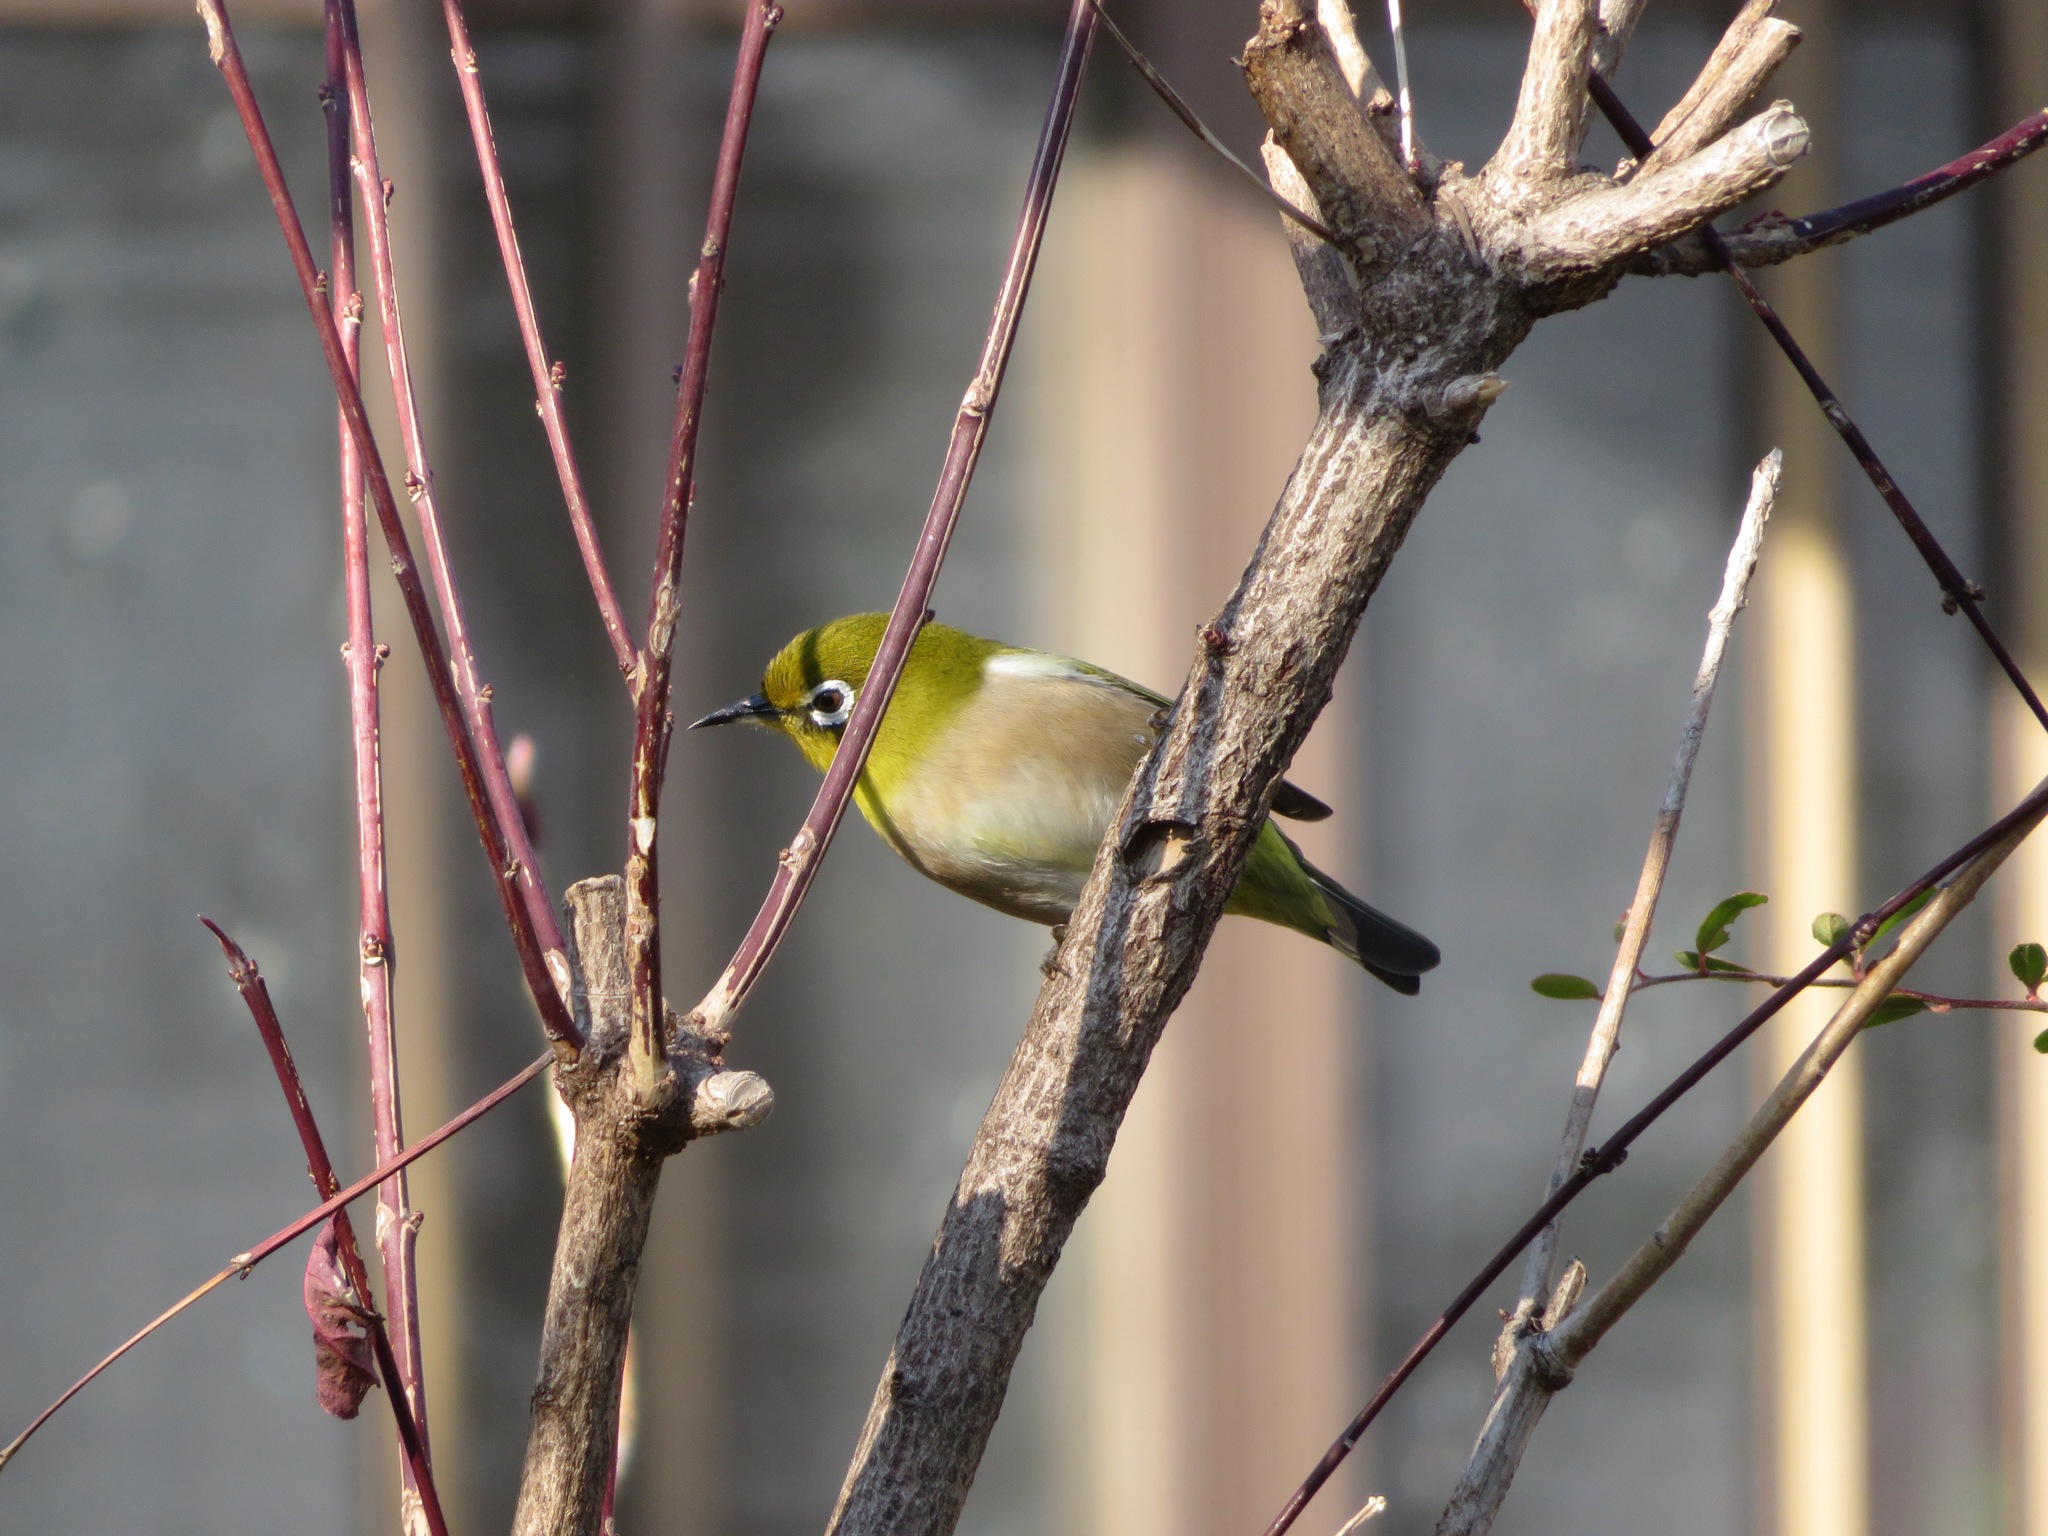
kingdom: Animalia
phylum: Chordata
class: Aves
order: Passeriformes
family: Zosteropidae
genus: Zosterops
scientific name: Zosterops japonicus
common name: Japanese white-eye
